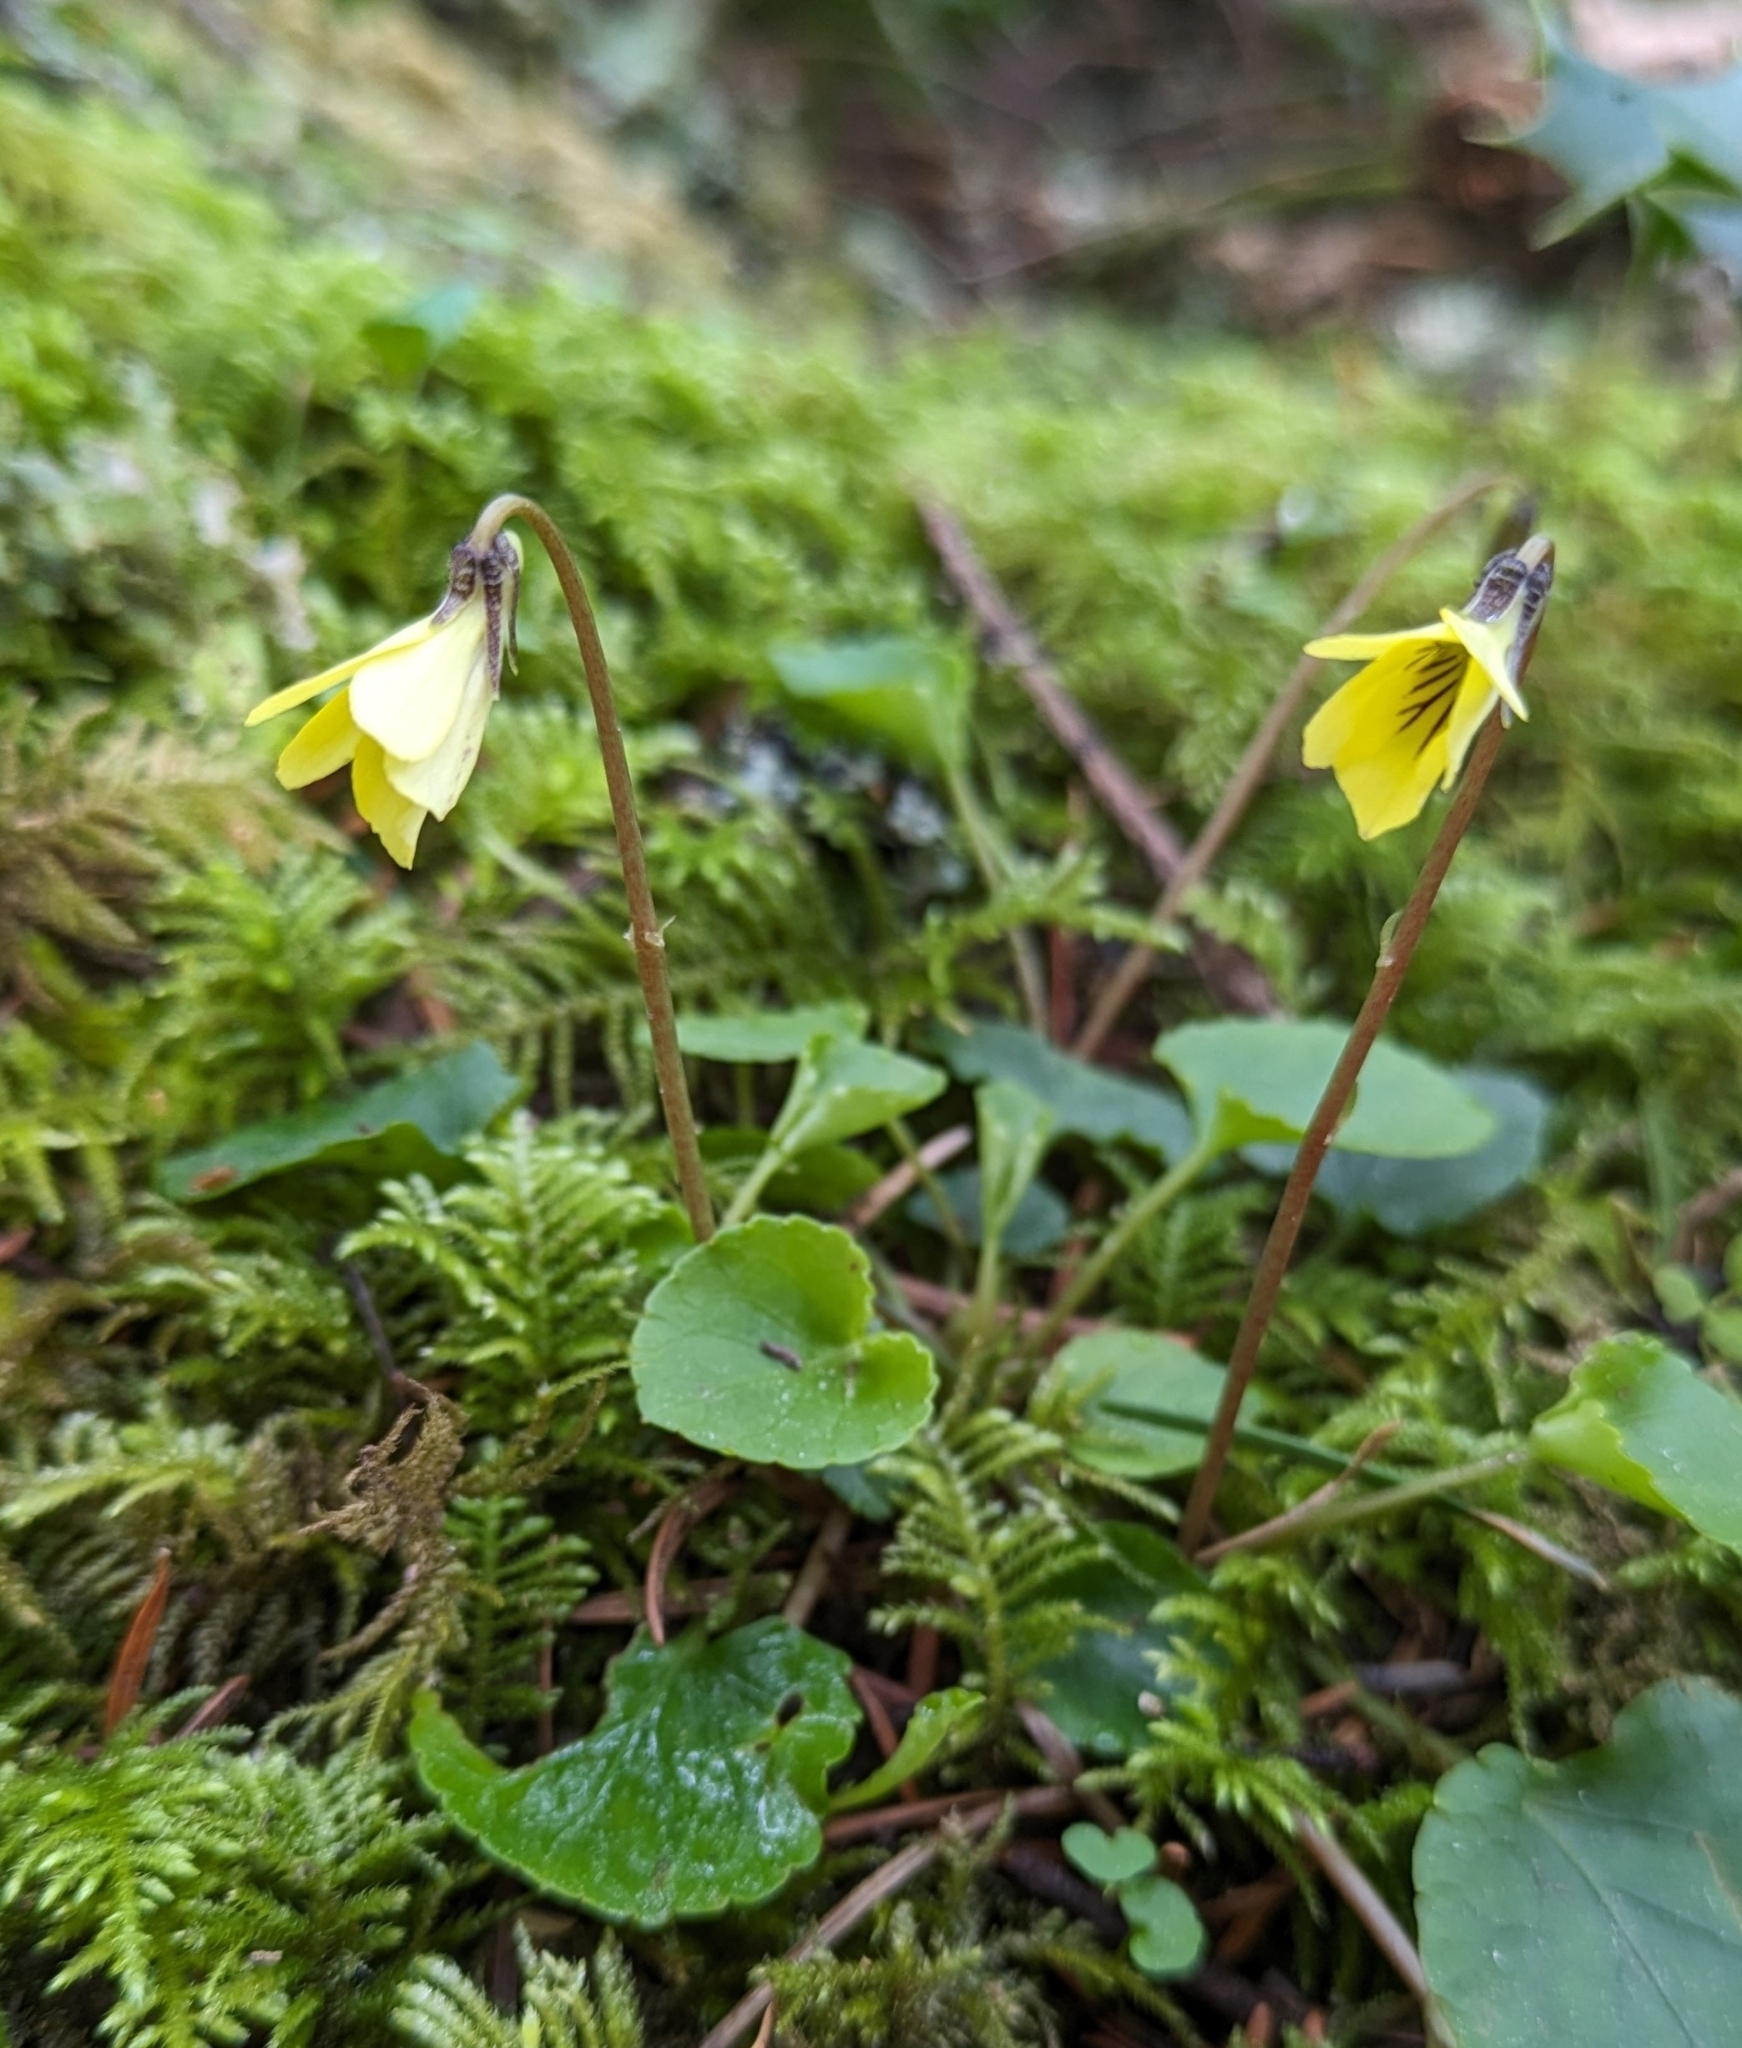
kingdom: Plantae
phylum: Tracheophyta
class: Magnoliopsida
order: Malpighiales
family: Violaceae
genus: Viola
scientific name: Viola sempervirens
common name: Evergreen violet
